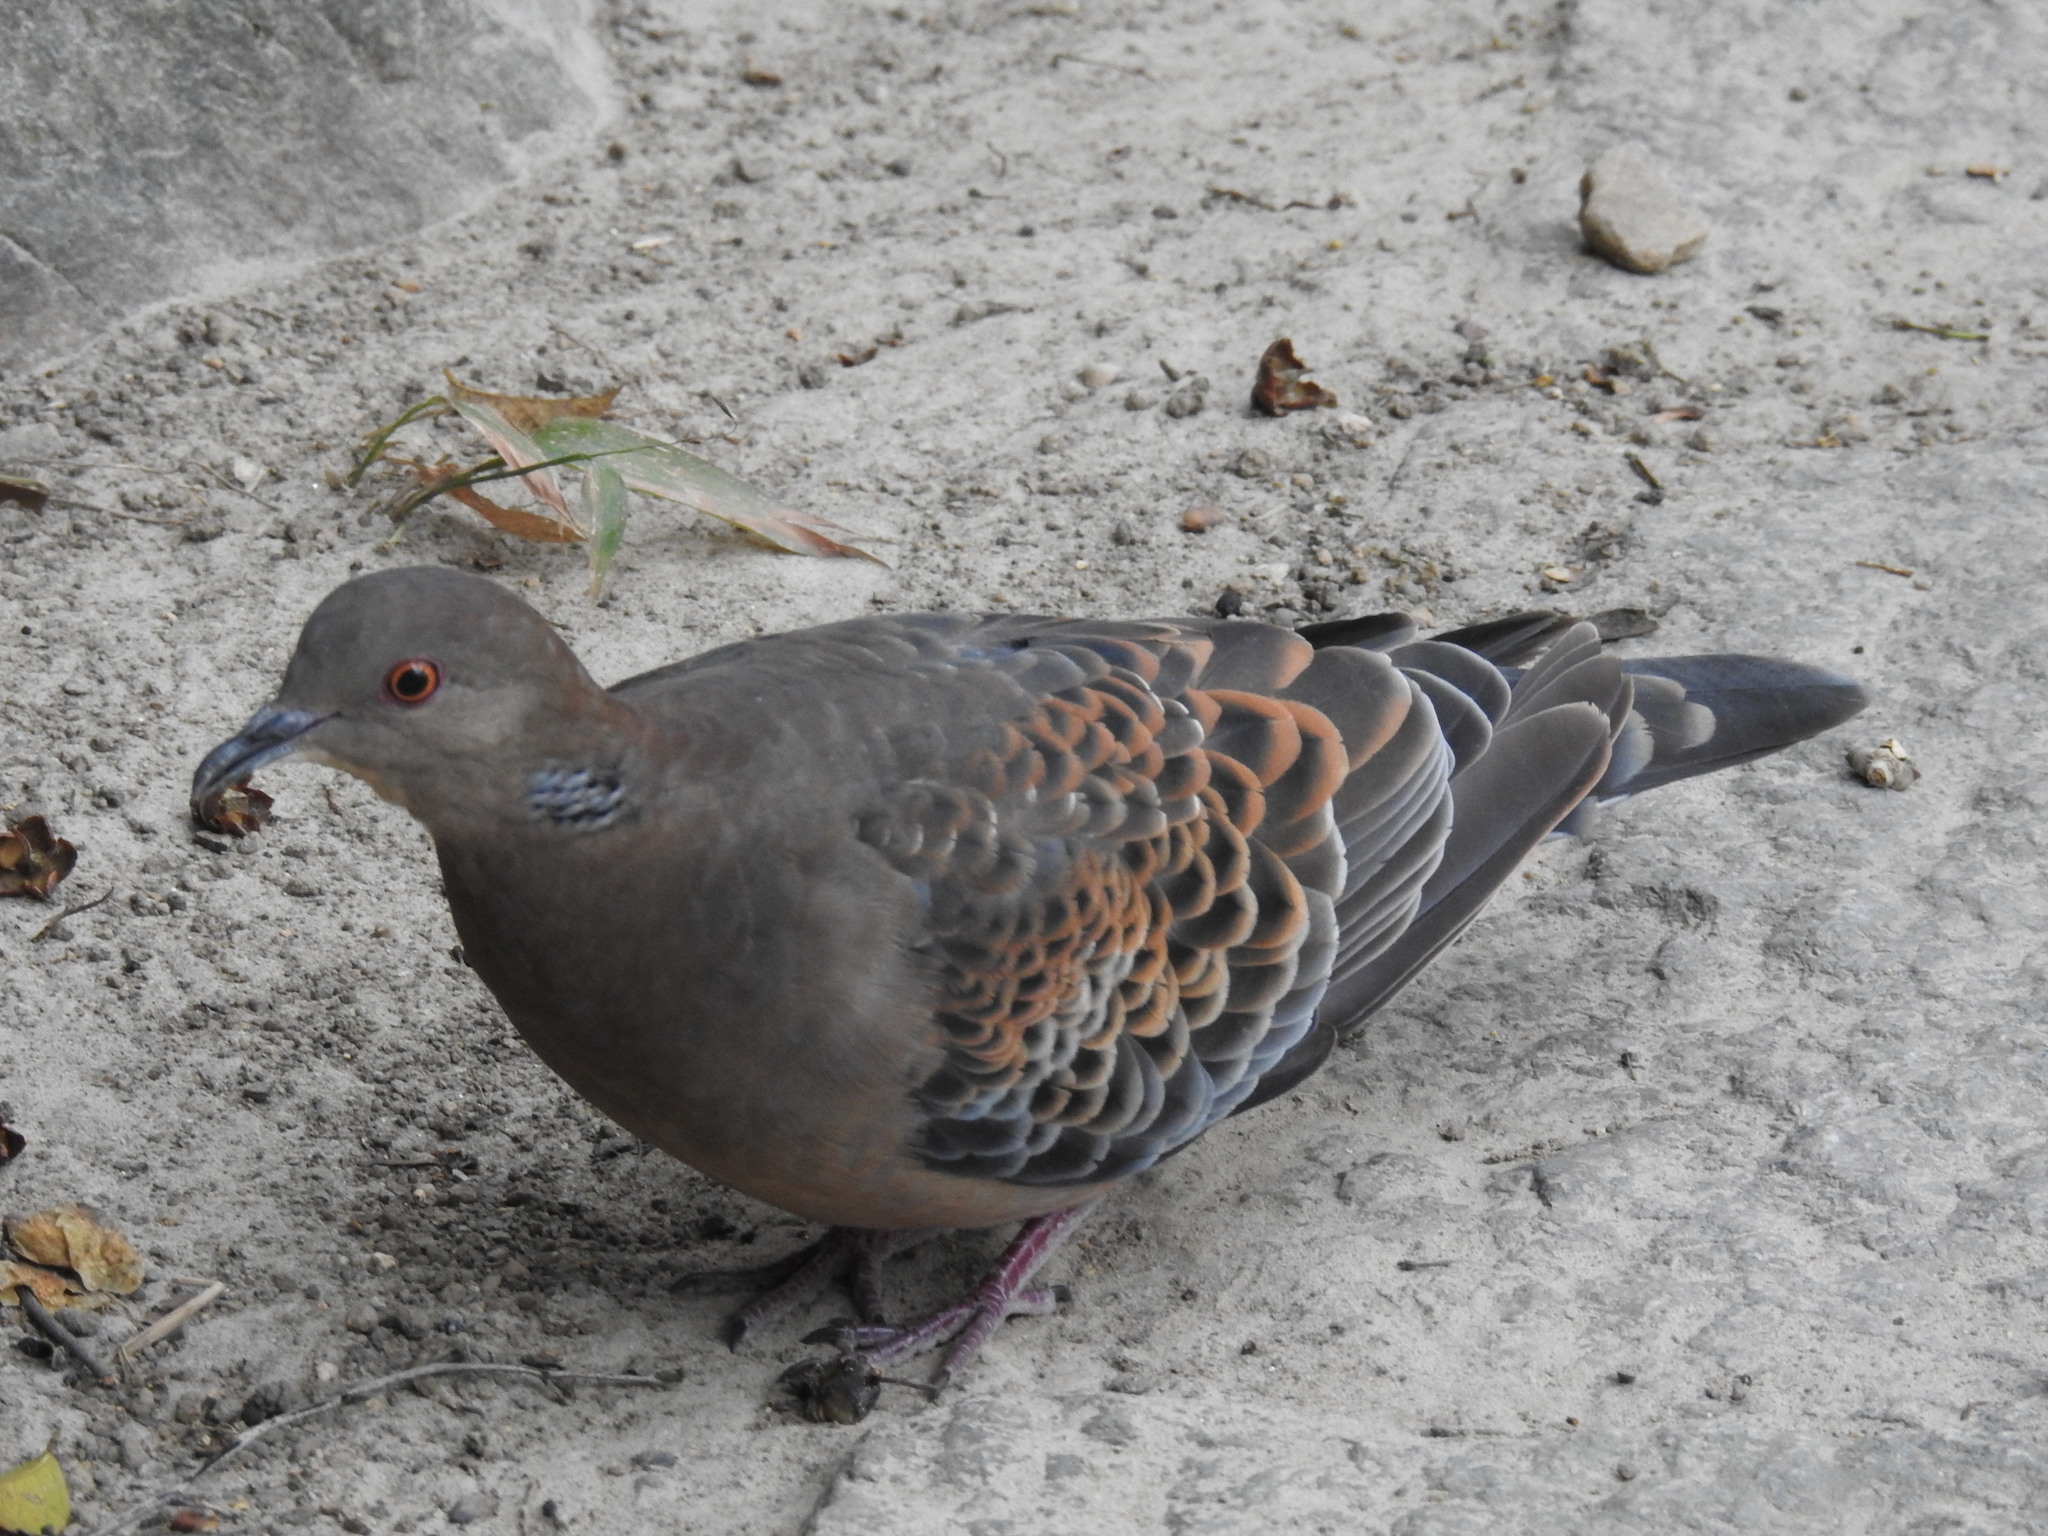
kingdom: Animalia
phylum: Chordata
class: Aves
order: Columbiformes
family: Columbidae
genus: Streptopelia
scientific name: Streptopelia orientalis
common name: Oriental turtle dove
